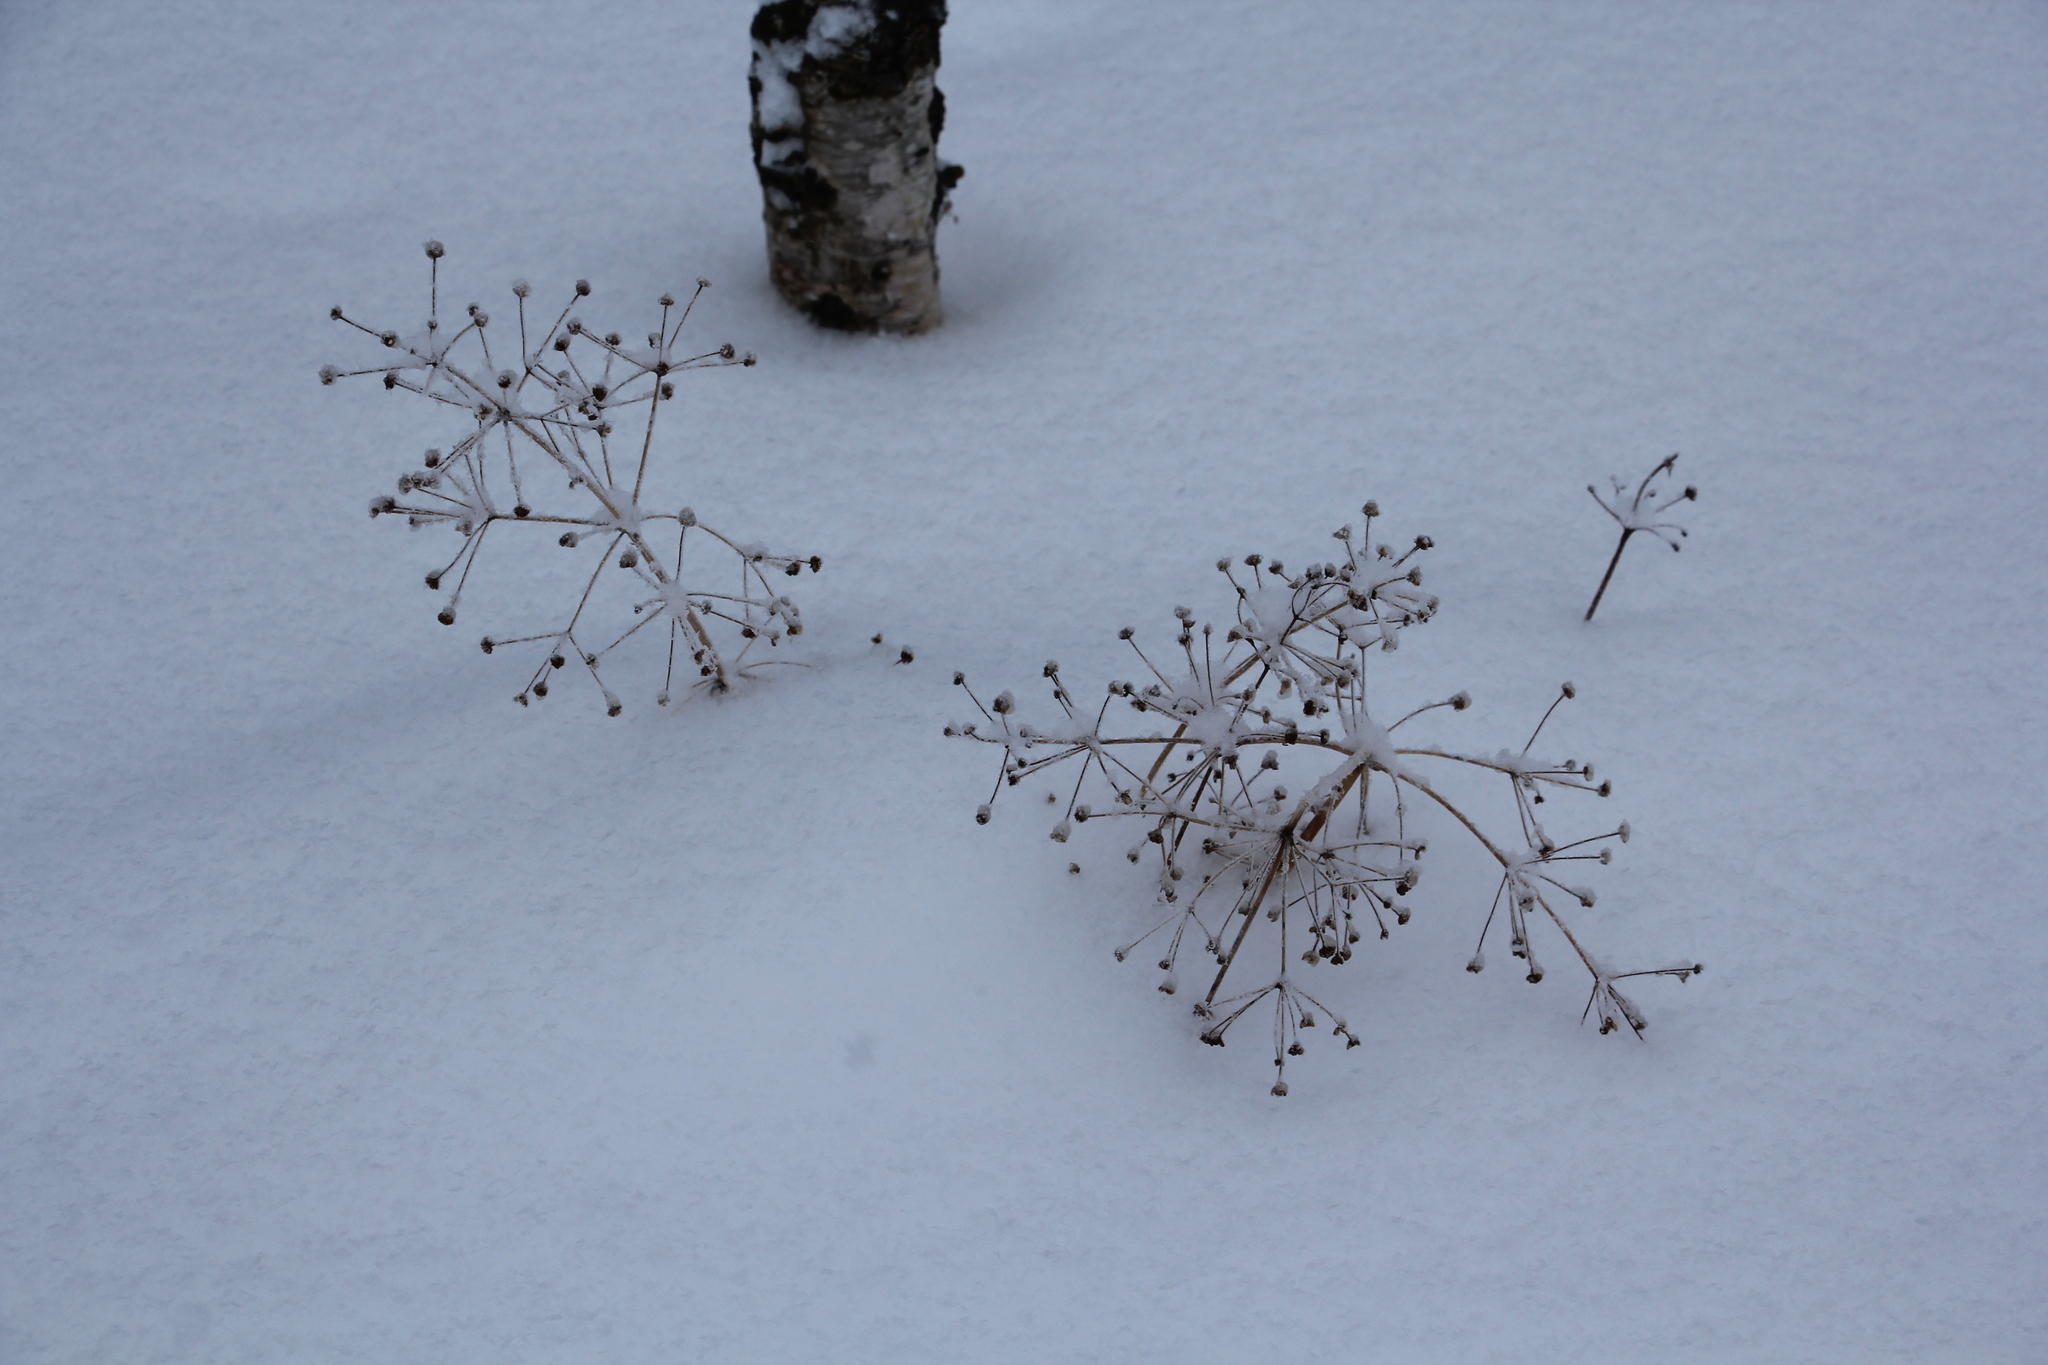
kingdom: Plantae
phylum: Tracheophyta
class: Liliopsida
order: Alismatales
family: Alismataceae
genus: Alisma
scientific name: Alisma plantago-aquatica
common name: Water-plantain
